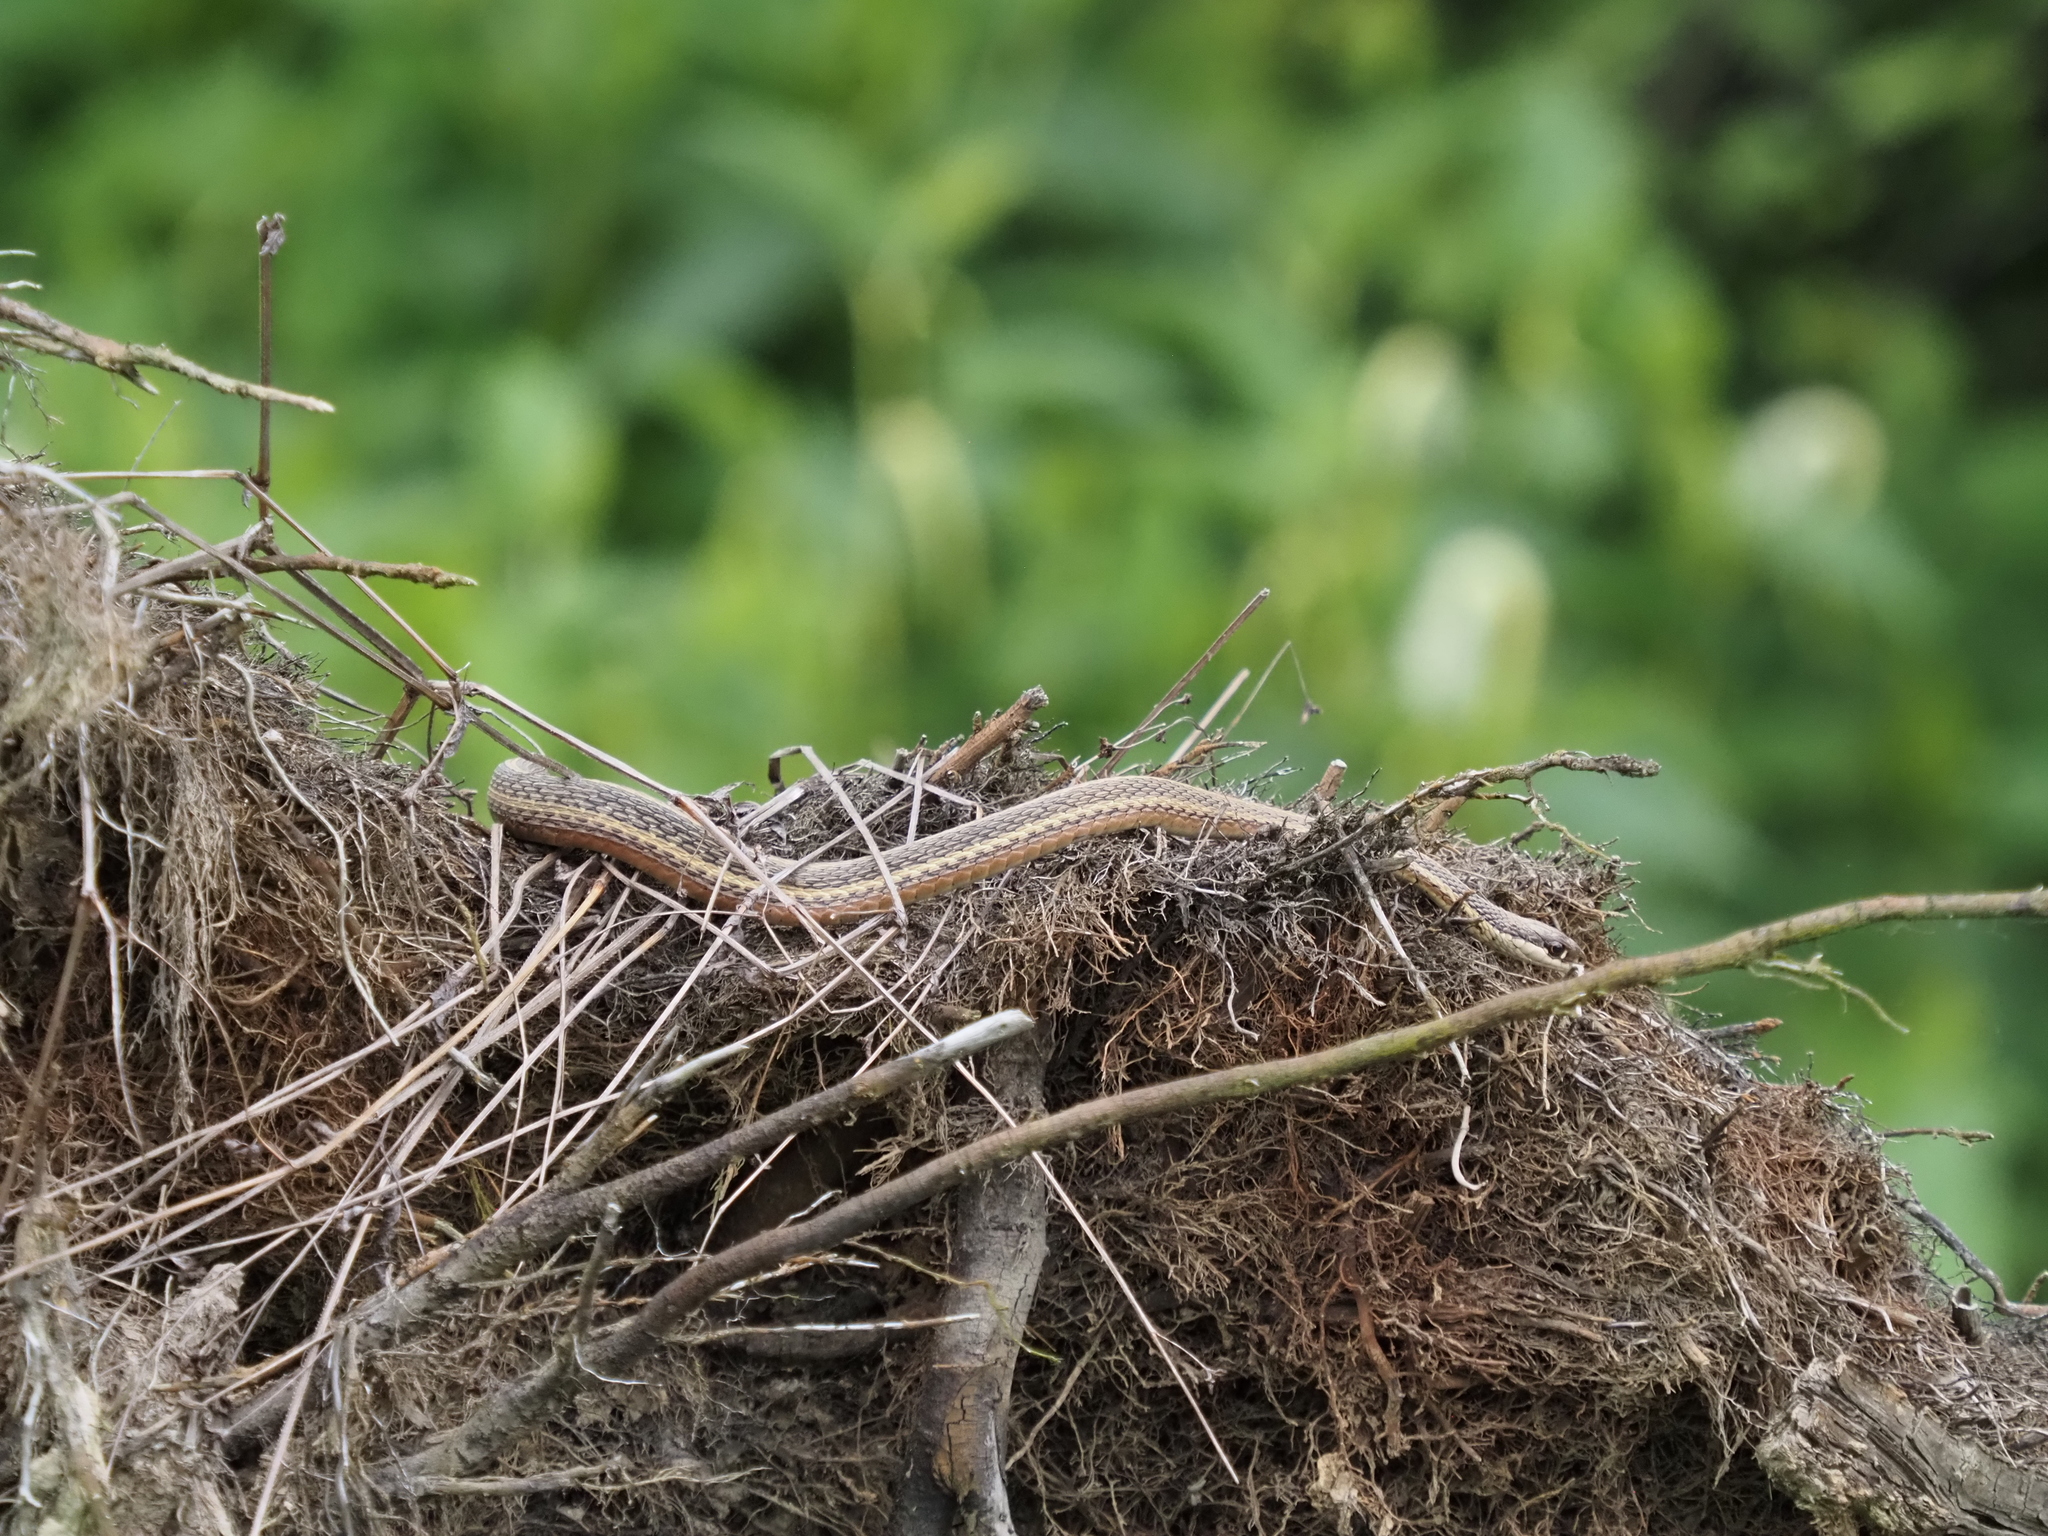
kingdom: Animalia
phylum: Chordata
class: Squamata
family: Colubridae
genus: Thamnophis
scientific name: Thamnophis saurita
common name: Eastern ribbonsnake
